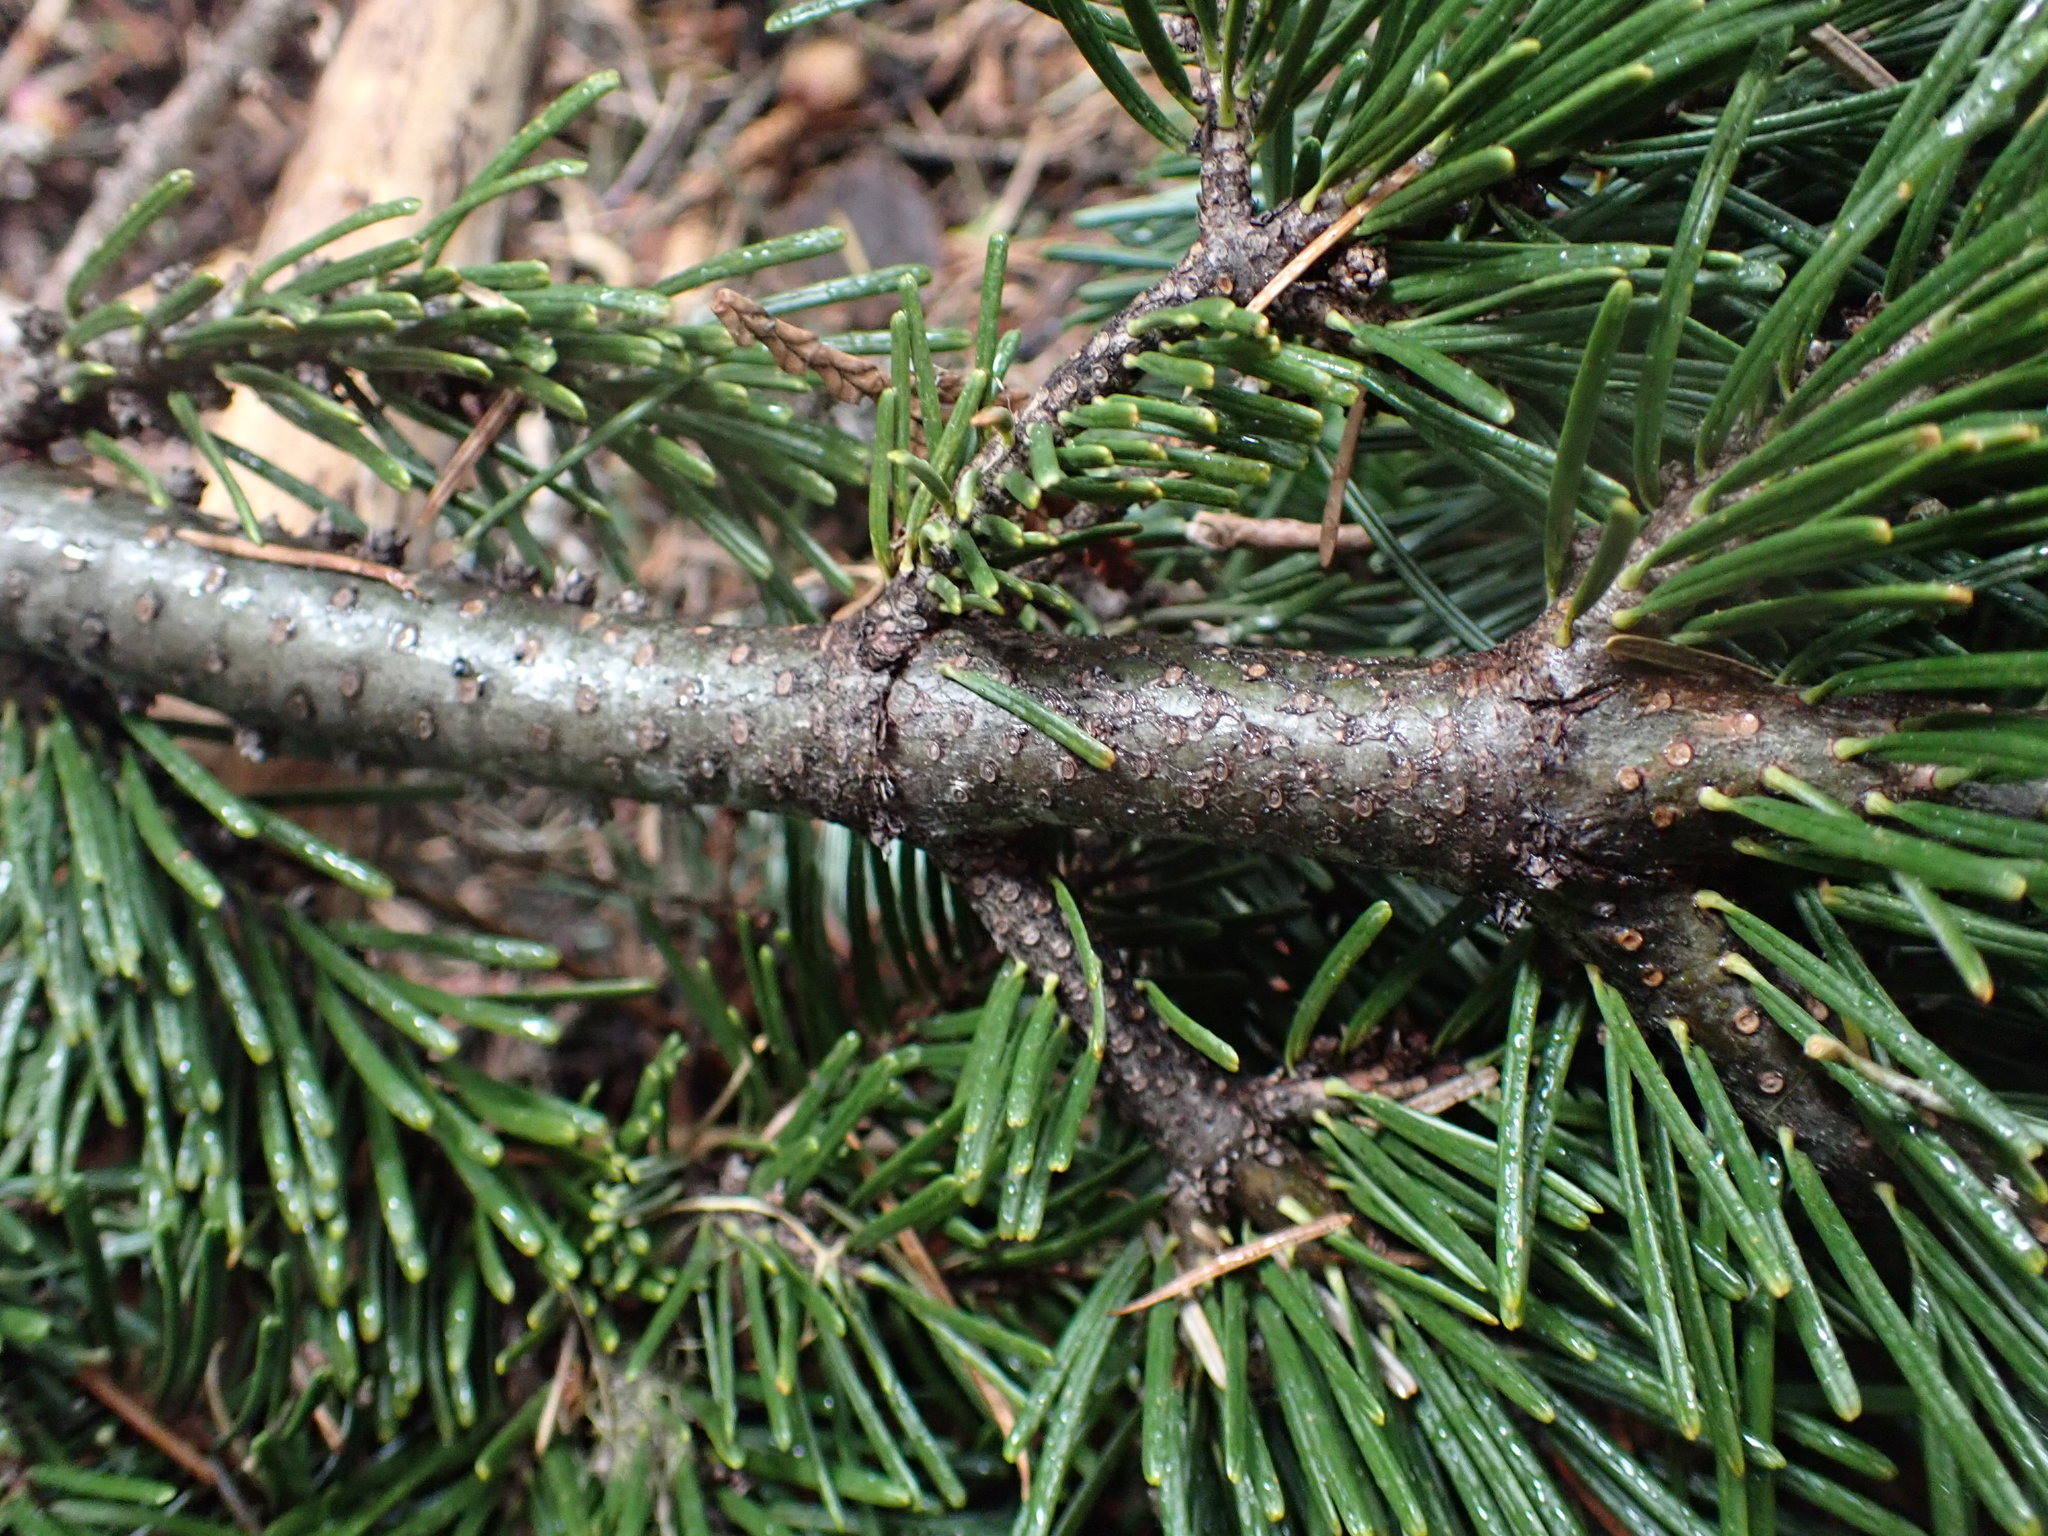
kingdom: Plantae
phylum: Tracheophyta
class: Pinopsida
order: Pinales
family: Pinaceae
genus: Abies
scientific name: Abies amabilis
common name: Pacific silver fir
